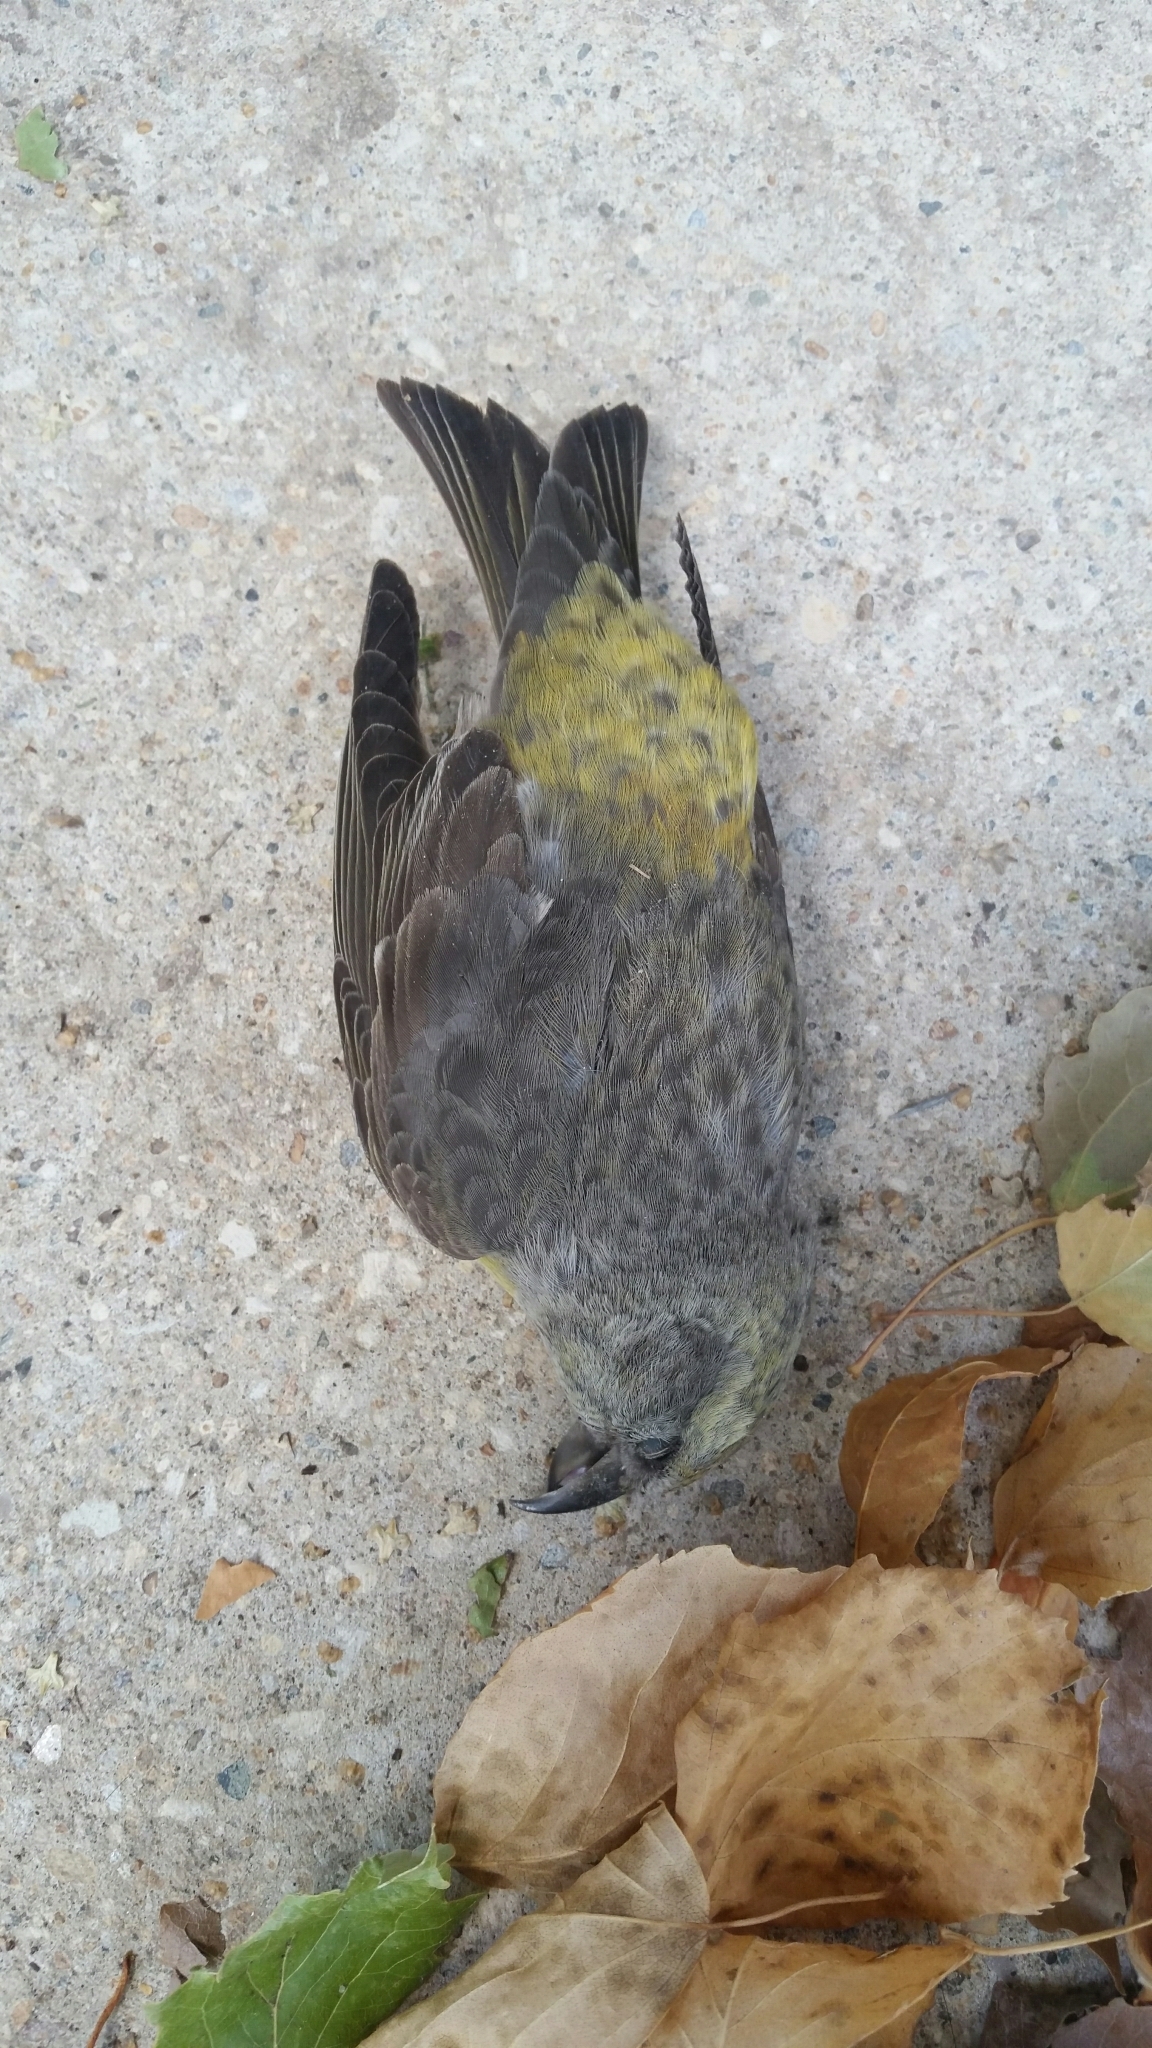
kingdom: Animalia
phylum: Chordata
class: Aves
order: Passeriformes
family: Fringillidae
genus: Loxia
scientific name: Loxia curvirostra
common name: Red crossbill
